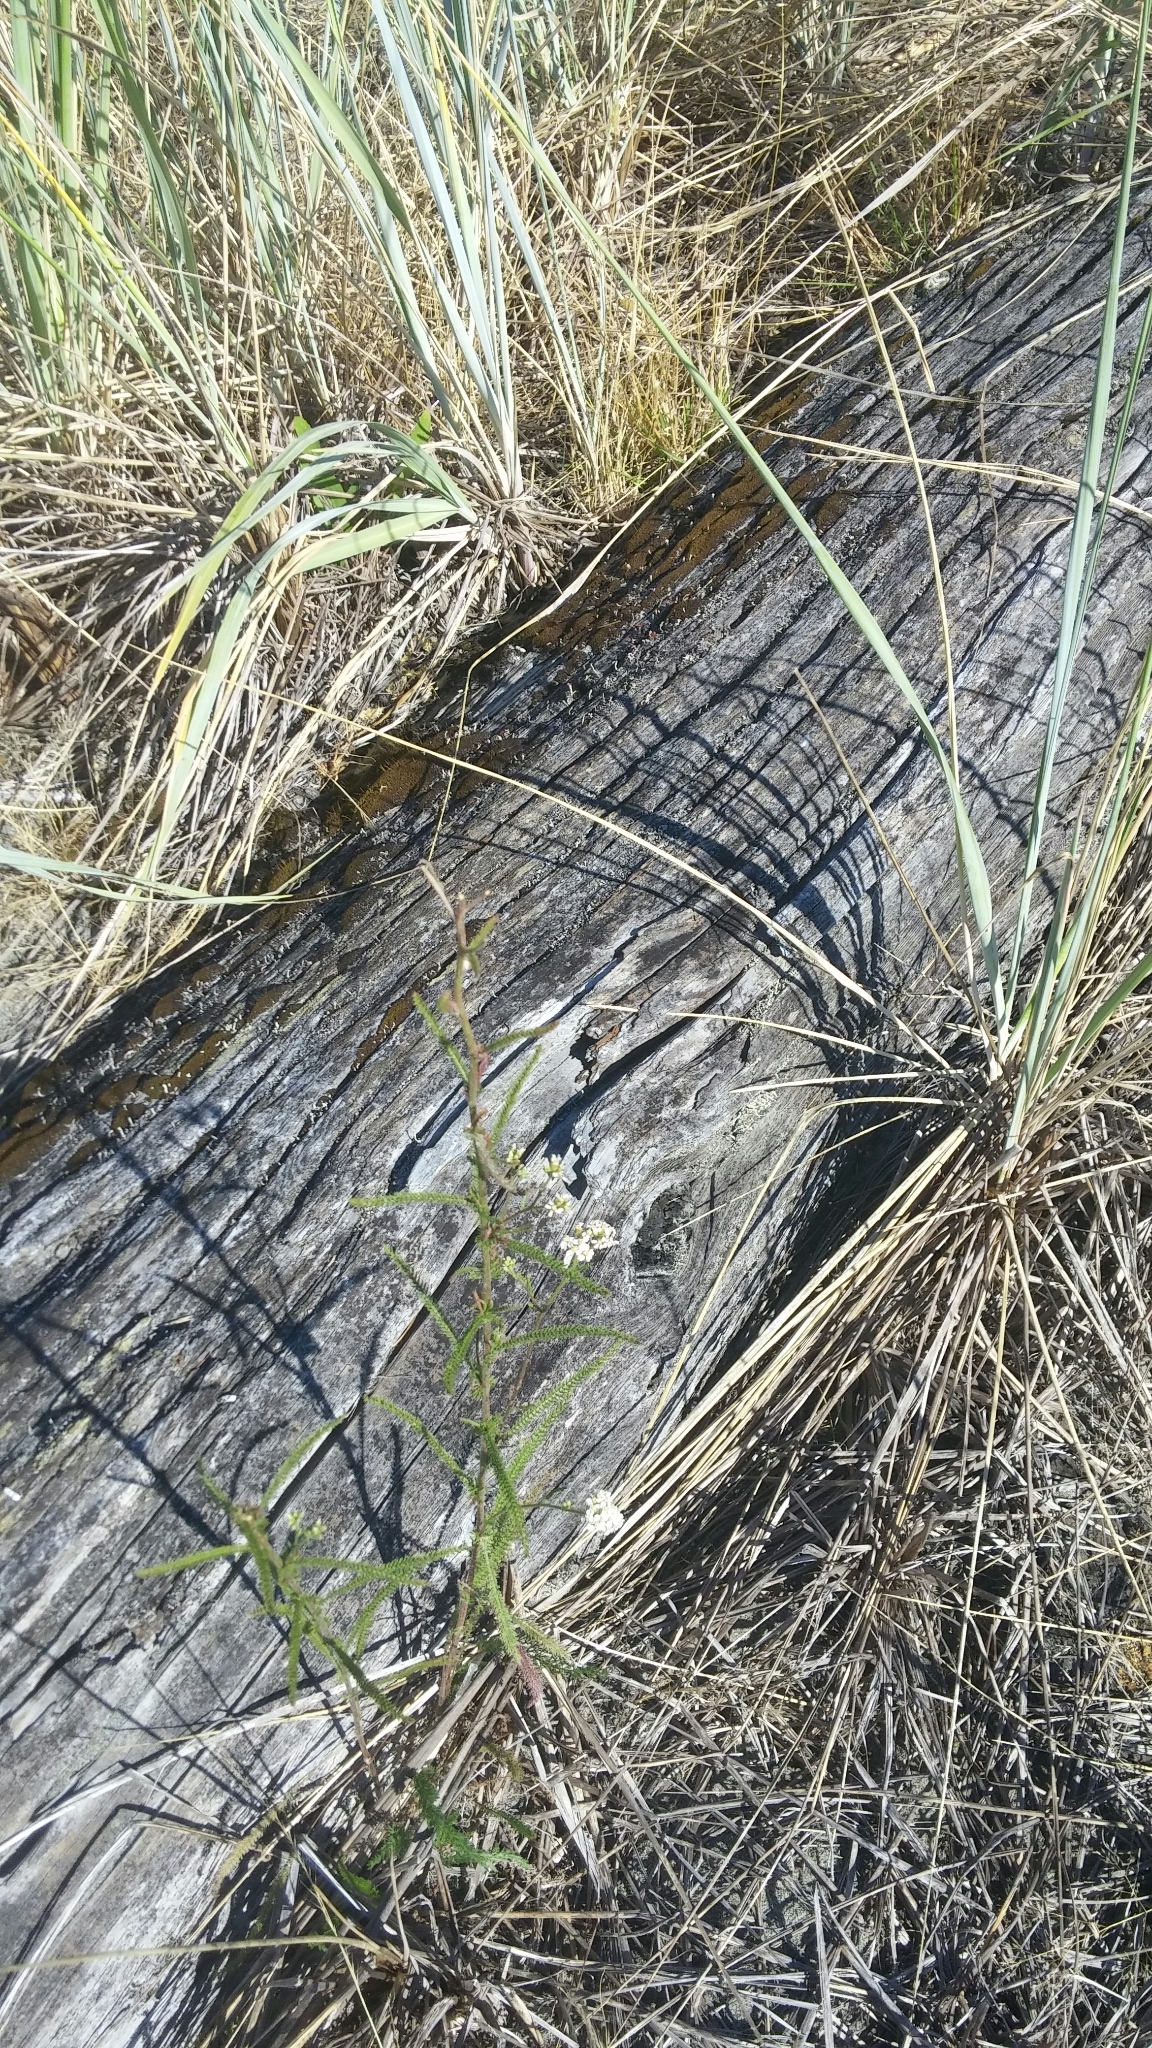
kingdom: Plantae
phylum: Tracheophyta
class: Magnoliopsida
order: Asterales
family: Asteraceae
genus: Achillea
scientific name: Achillea millefolium
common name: Yarrow
